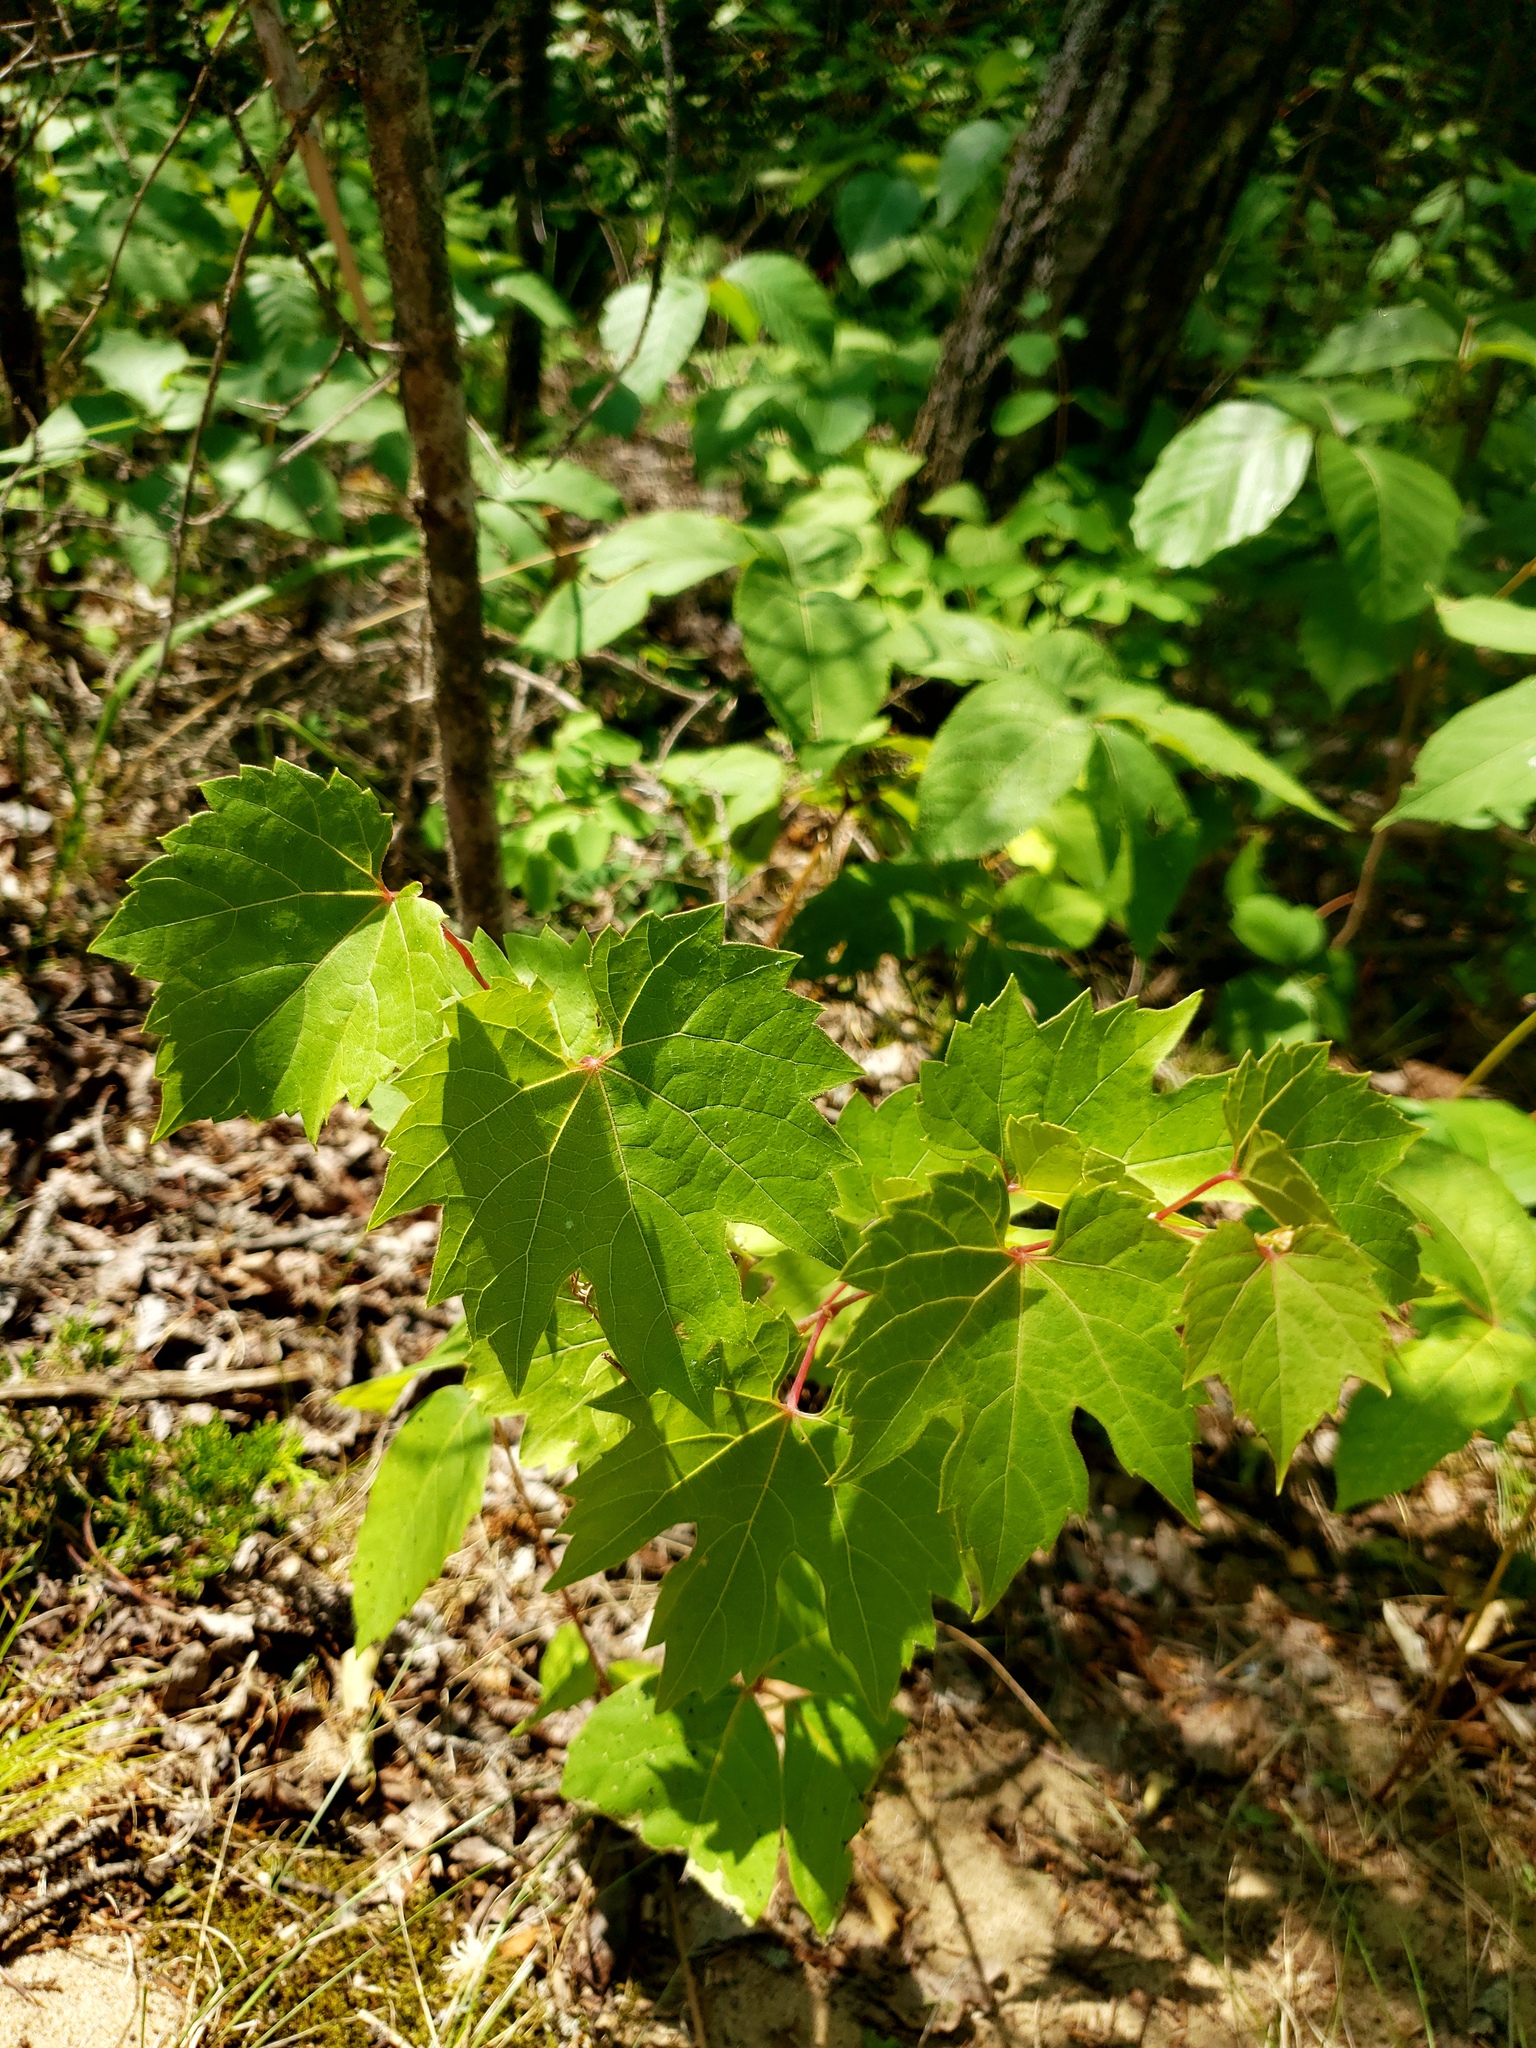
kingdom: Plantae
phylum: Tracheophyta
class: Magnoliopsida
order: Vitales
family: Vitaceae
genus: Vitis
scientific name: Vitis riparia
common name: Frost grape
